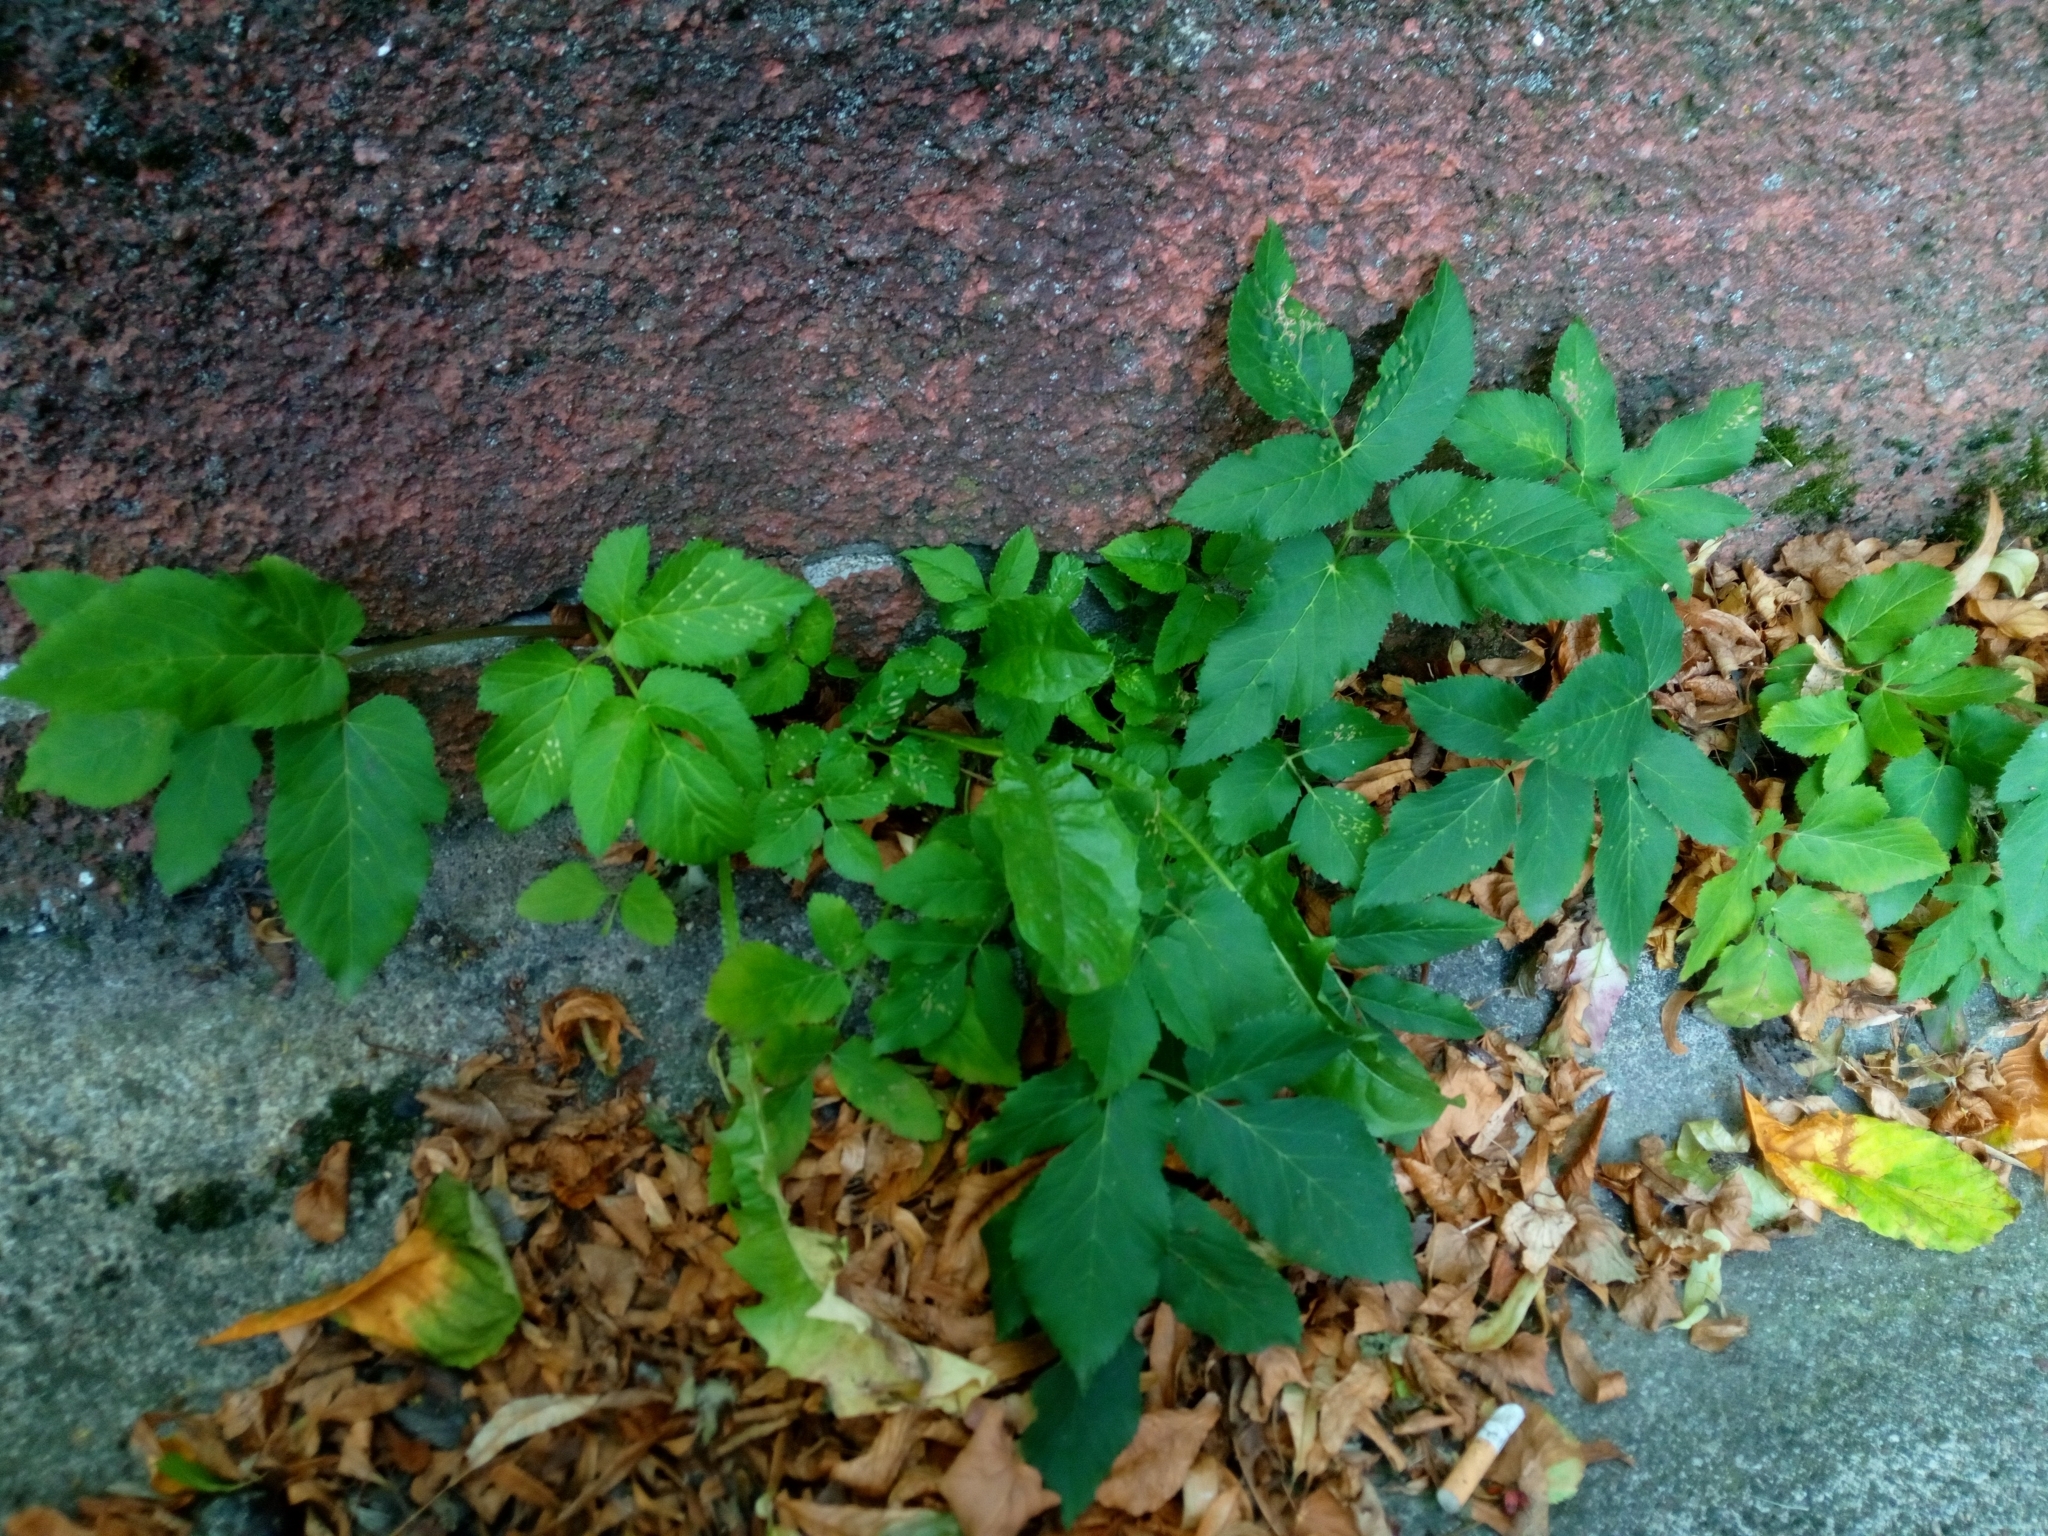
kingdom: Plantae
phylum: Tracheophyta
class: Magnoliopsida
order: Apiales
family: Apiaceae
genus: Aegopodium
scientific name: Aegopodium podagraria
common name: Ground-elder
